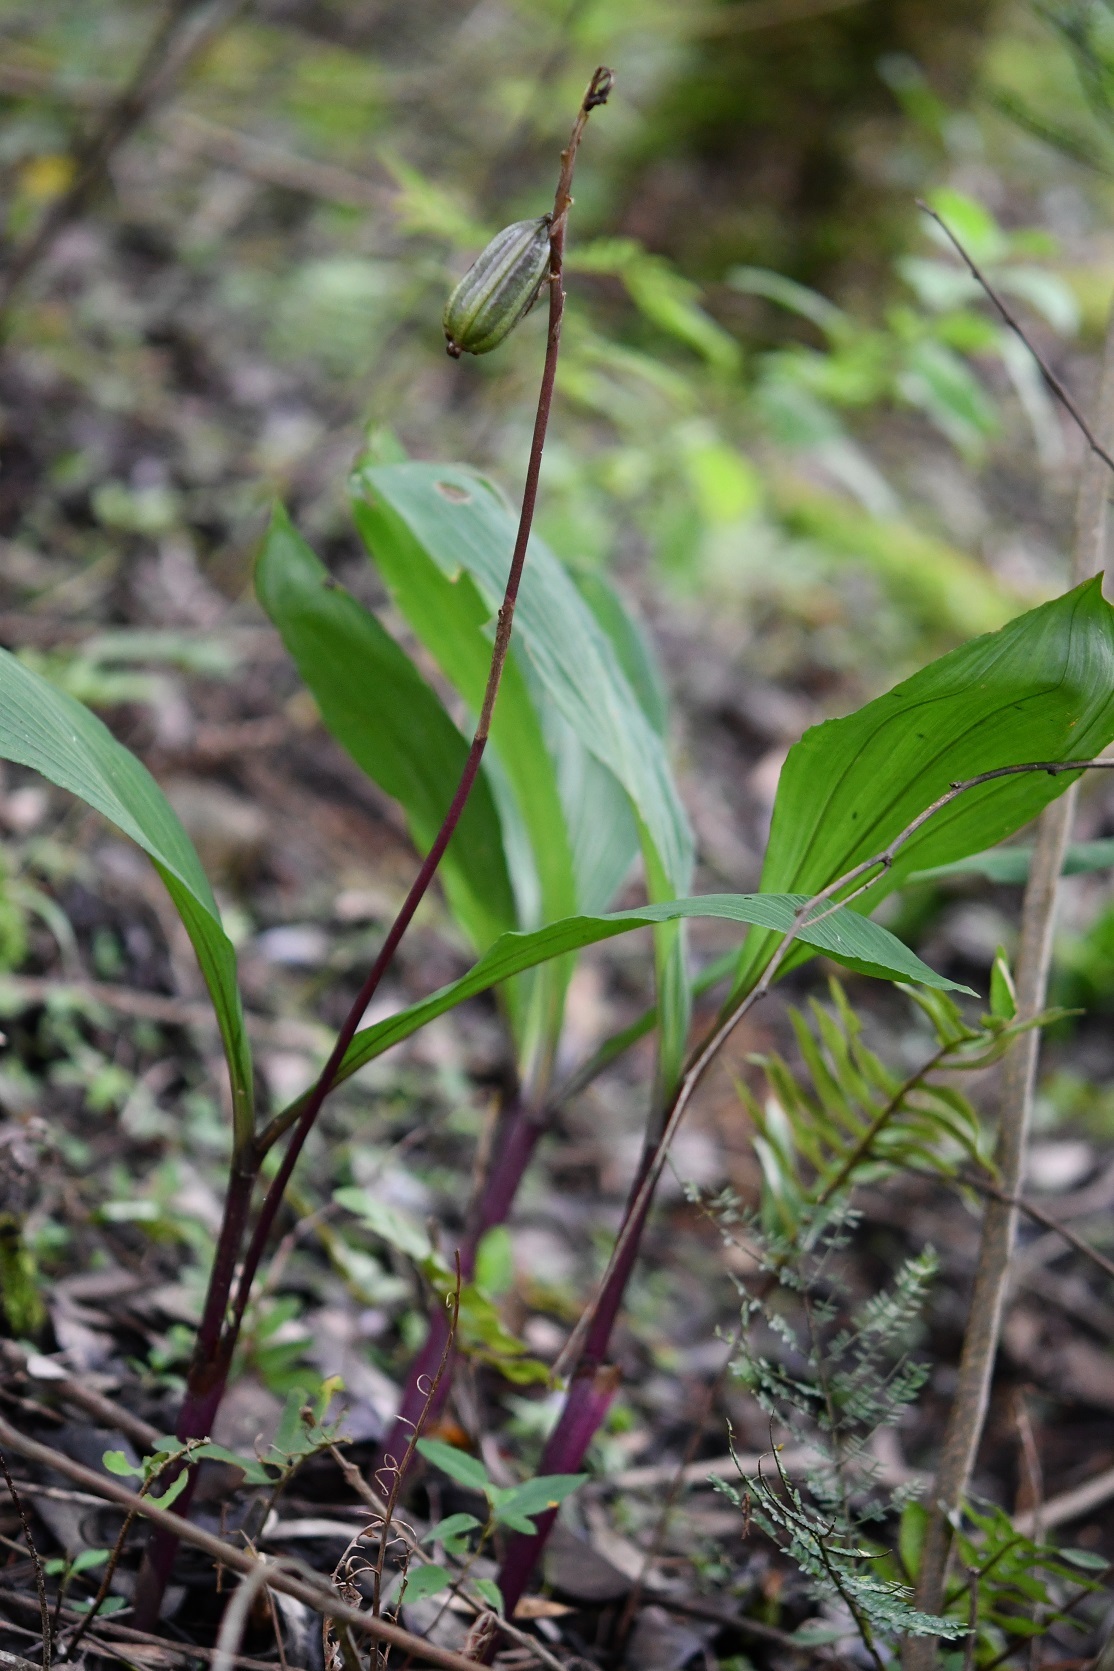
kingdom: Plantae
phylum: Tracheophyta
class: Liliopsida
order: Asparagales
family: Orchidaceae
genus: Govenia
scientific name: Govenia liliacea
